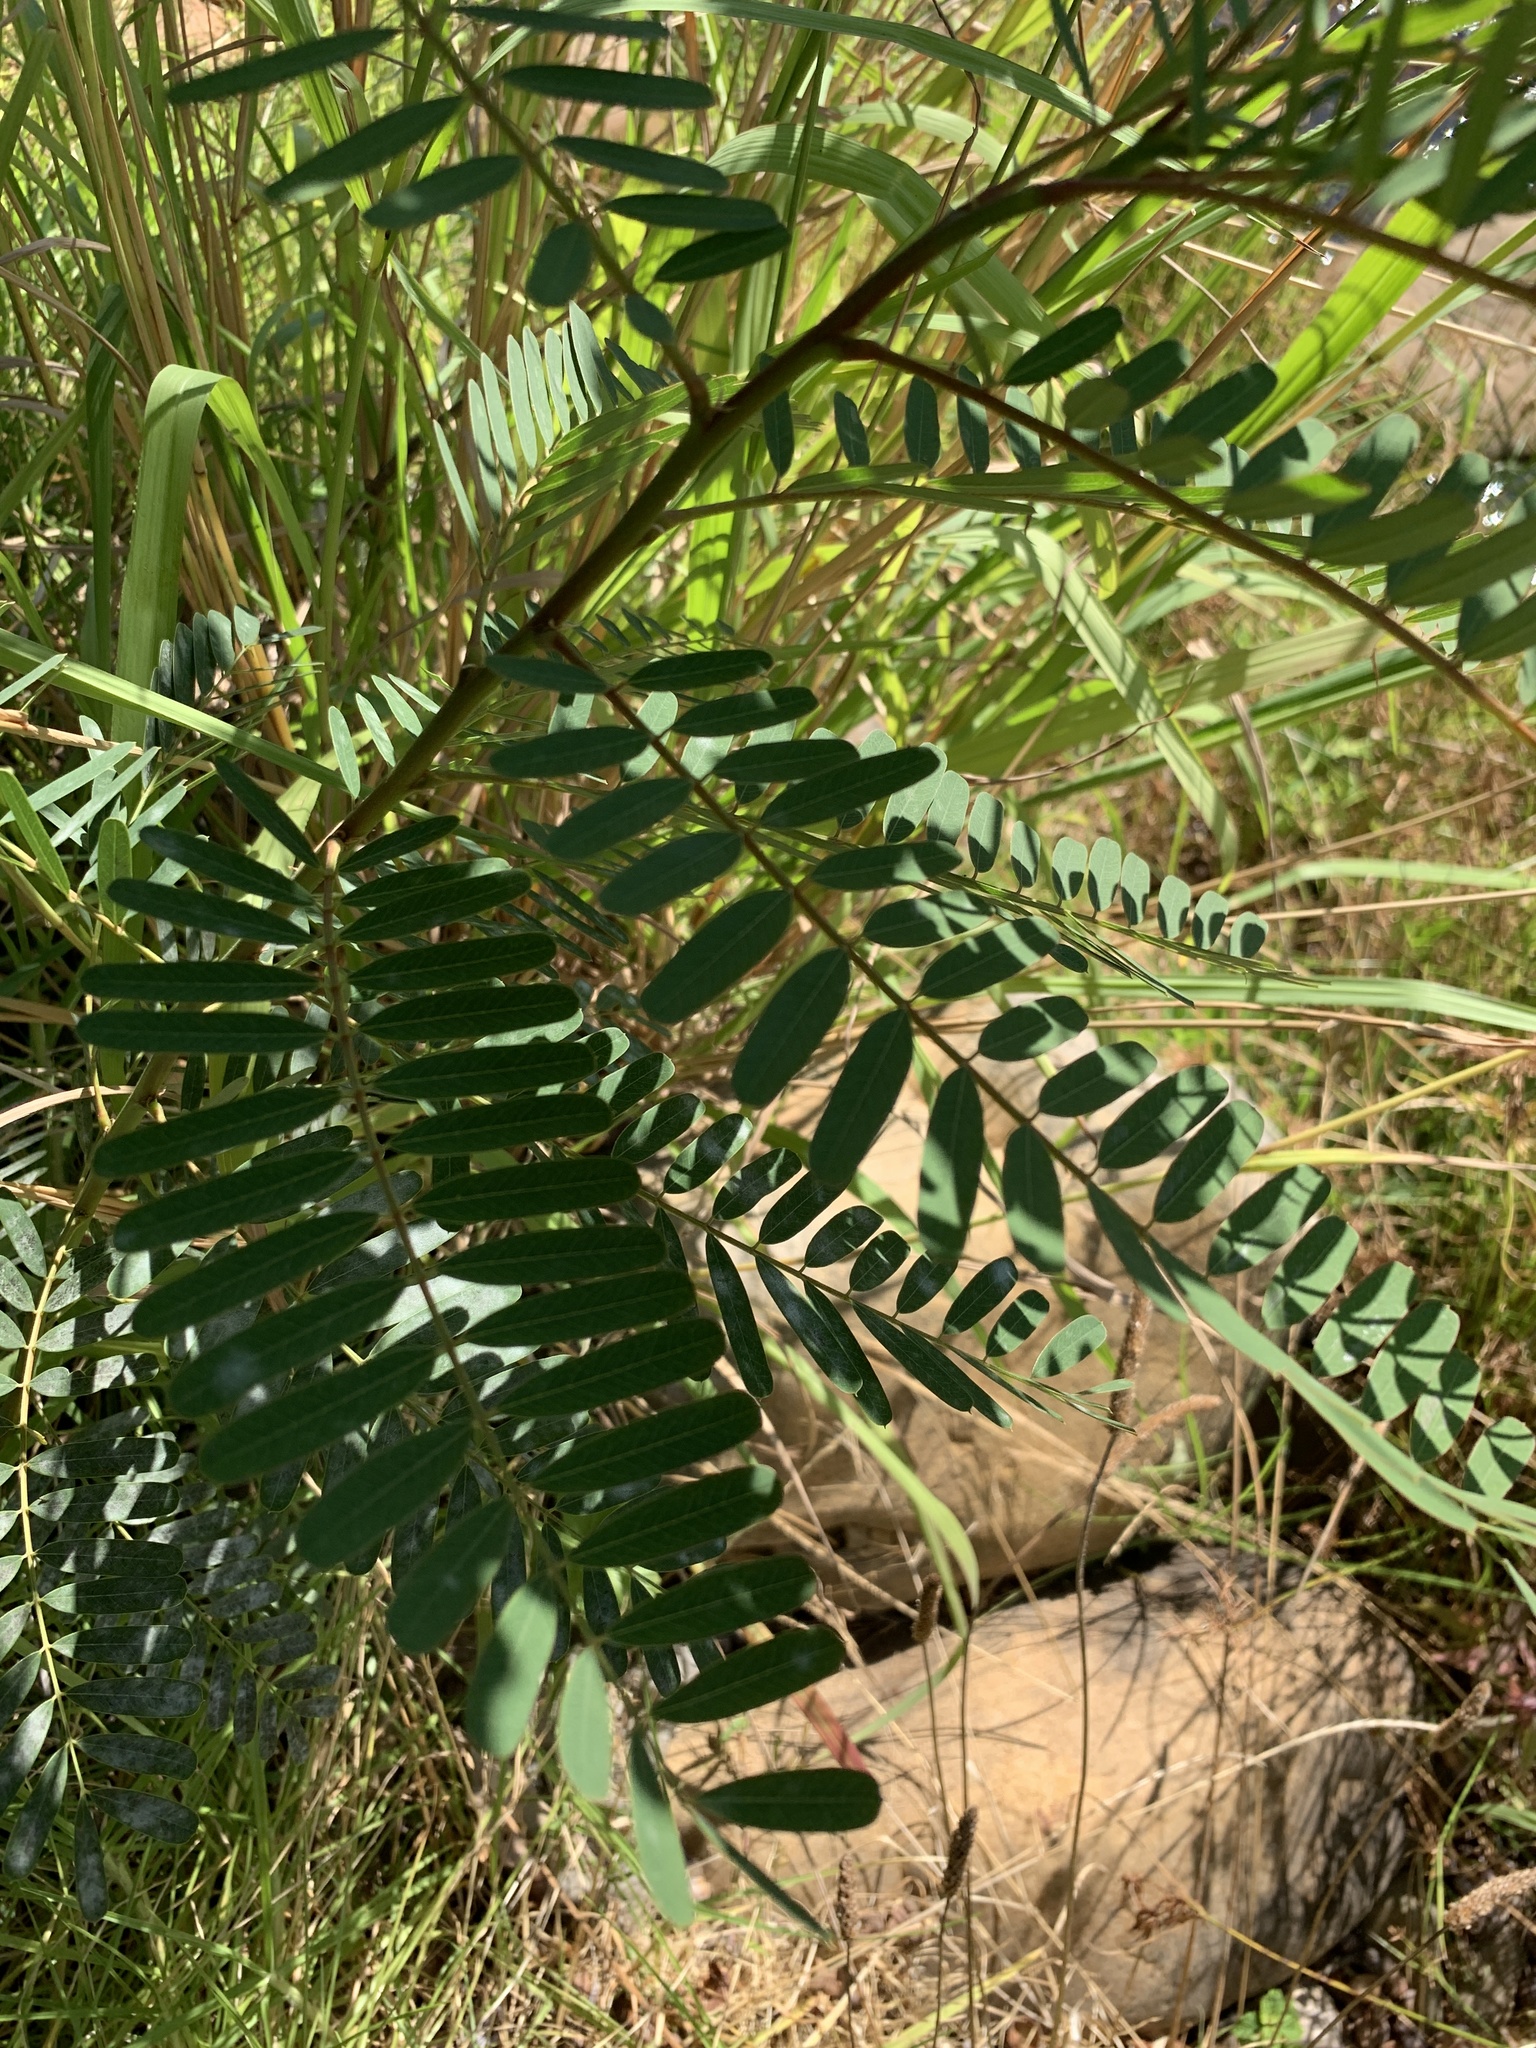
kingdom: Plantae
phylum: Tracheophyta
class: Magnoliopsida
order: Fabales
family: Fabaceae
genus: Sesbania
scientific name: Sesbania punicea
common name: Rattlebox
